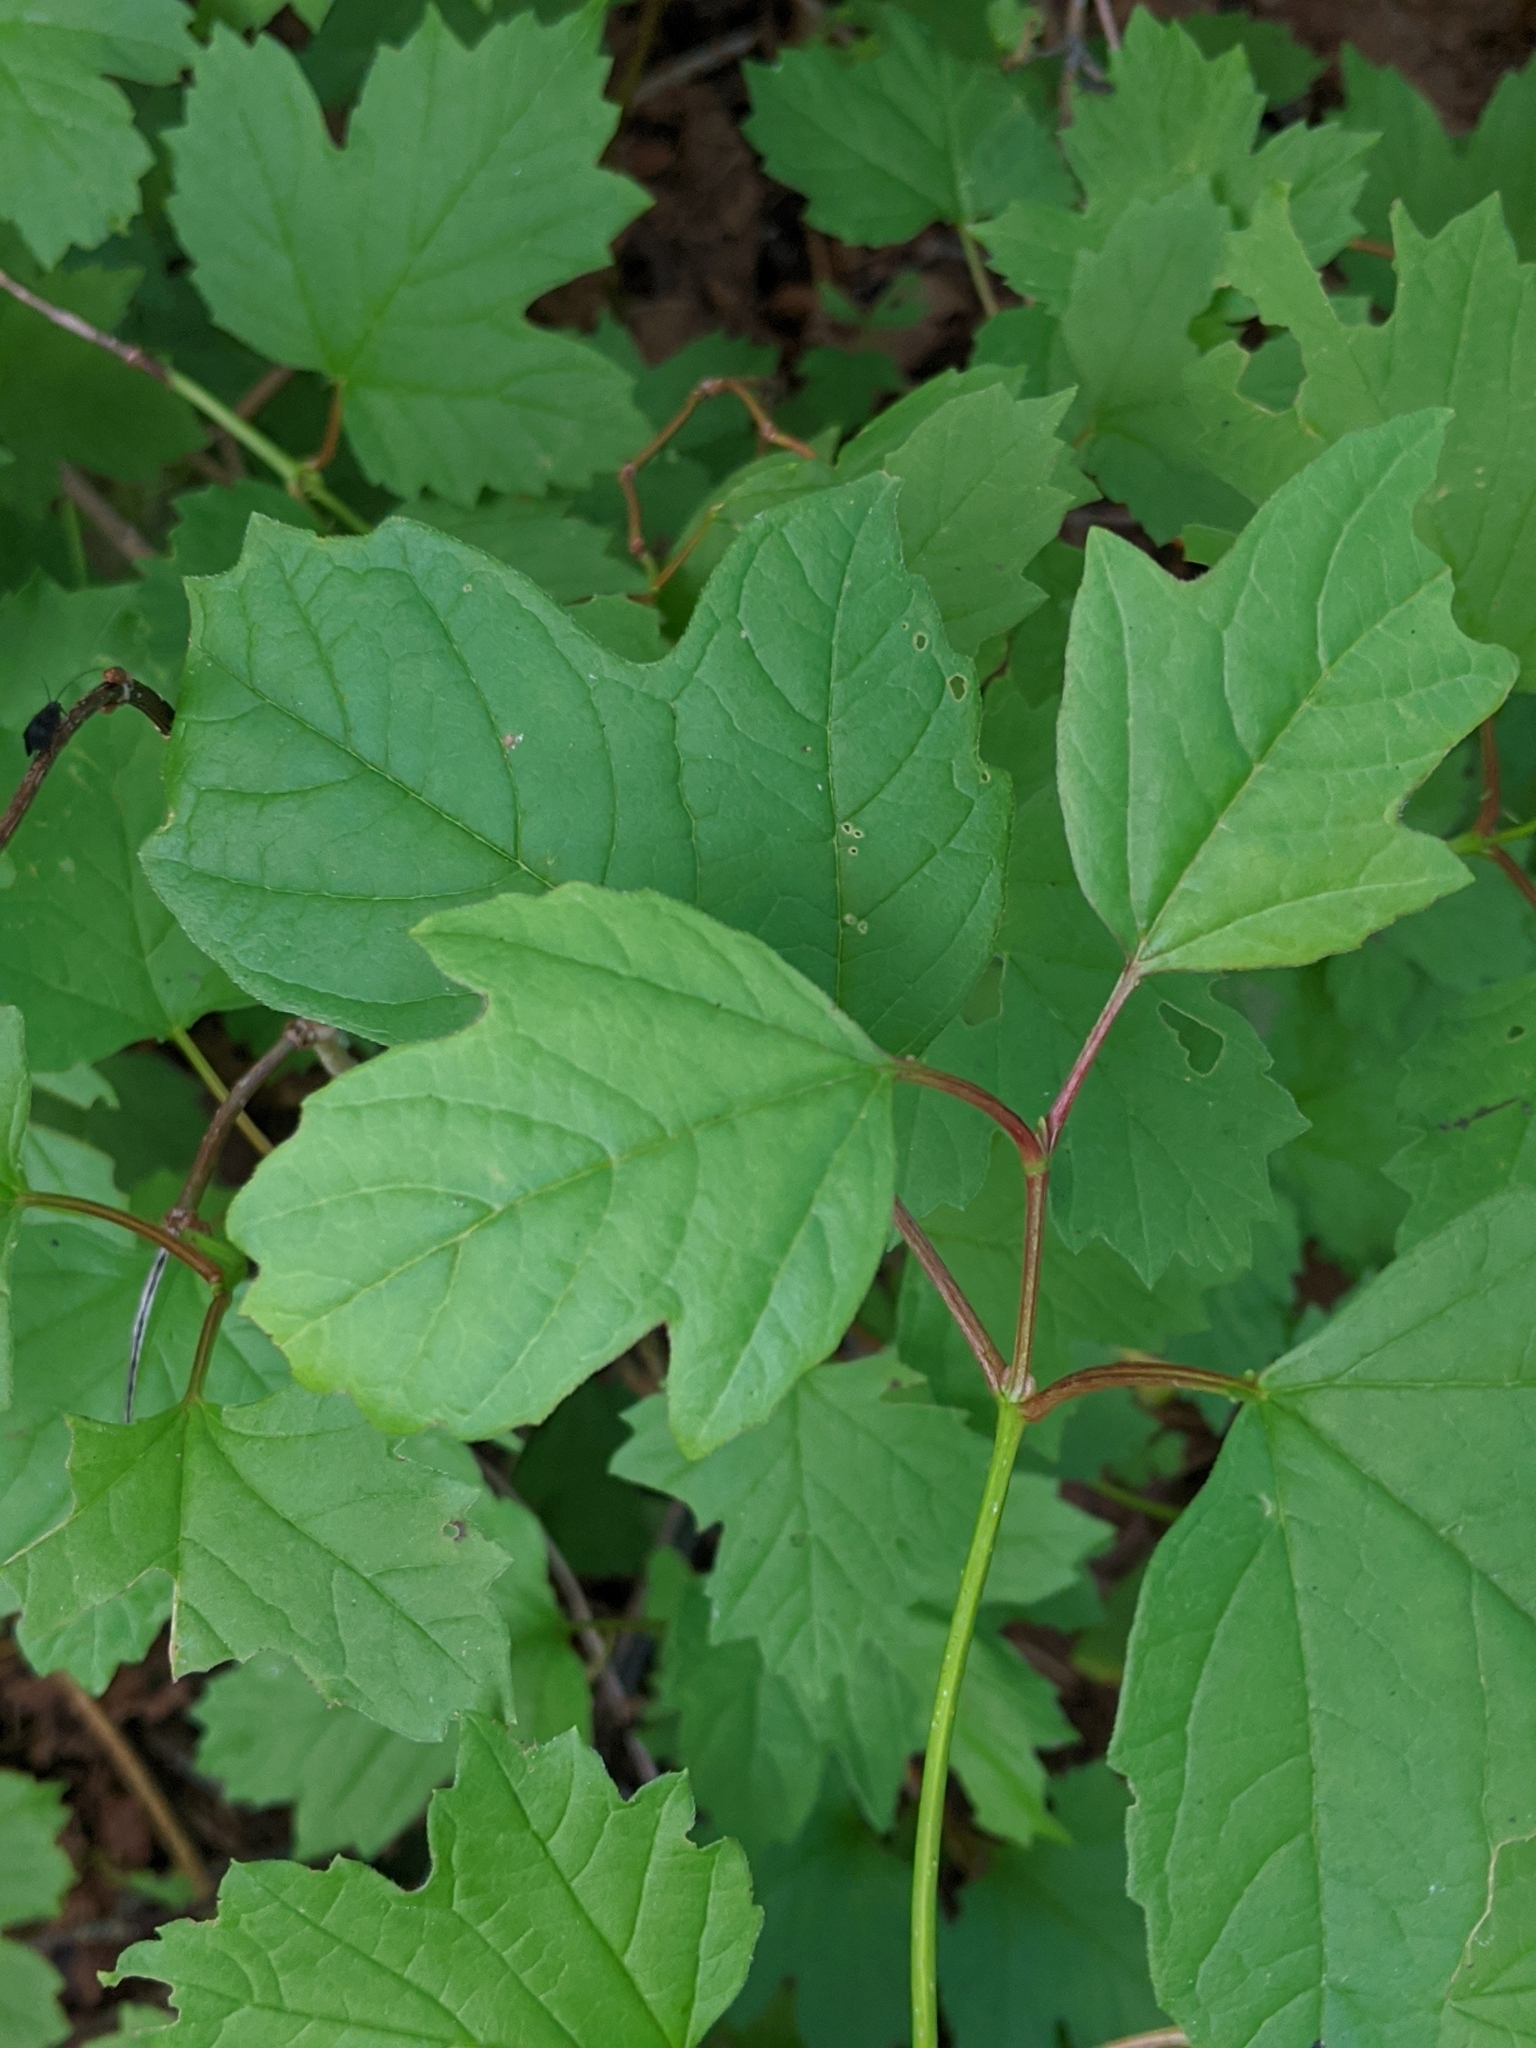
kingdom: Plantae
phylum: Tracheophyta
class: Magnoliopsida
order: Dipsacales
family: Viburnaceae
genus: Viburnum
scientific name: Viburnum opulus
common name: Guelder-rose
